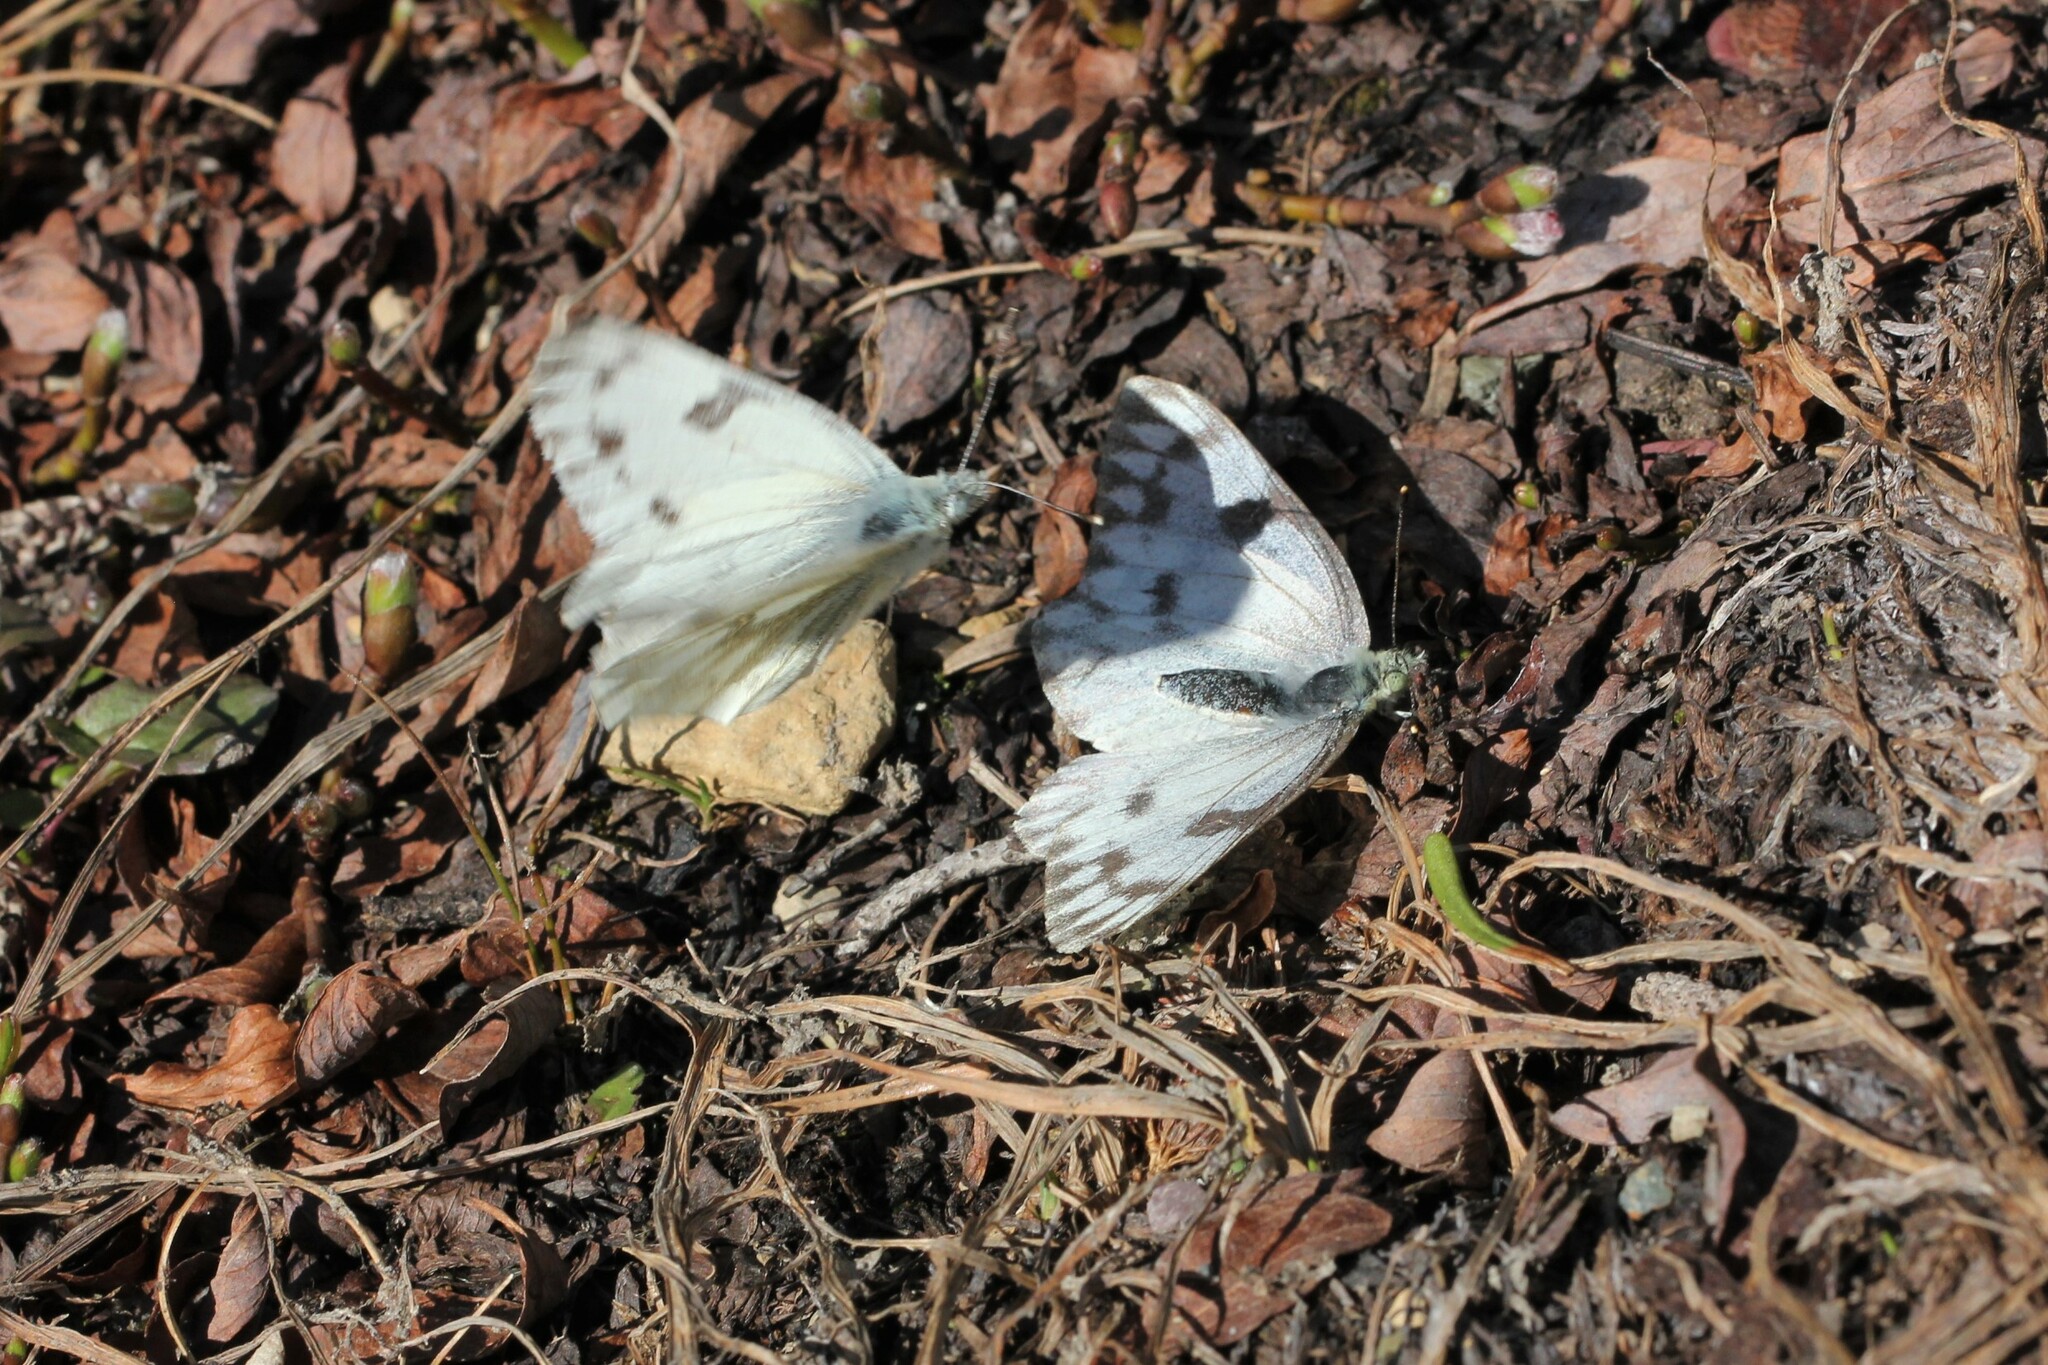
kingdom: Animalia
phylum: Arthropoda
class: Insecta
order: Lepidoptera
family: Pieridae
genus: Pontia
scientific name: Pontia occidentalis
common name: Western white
